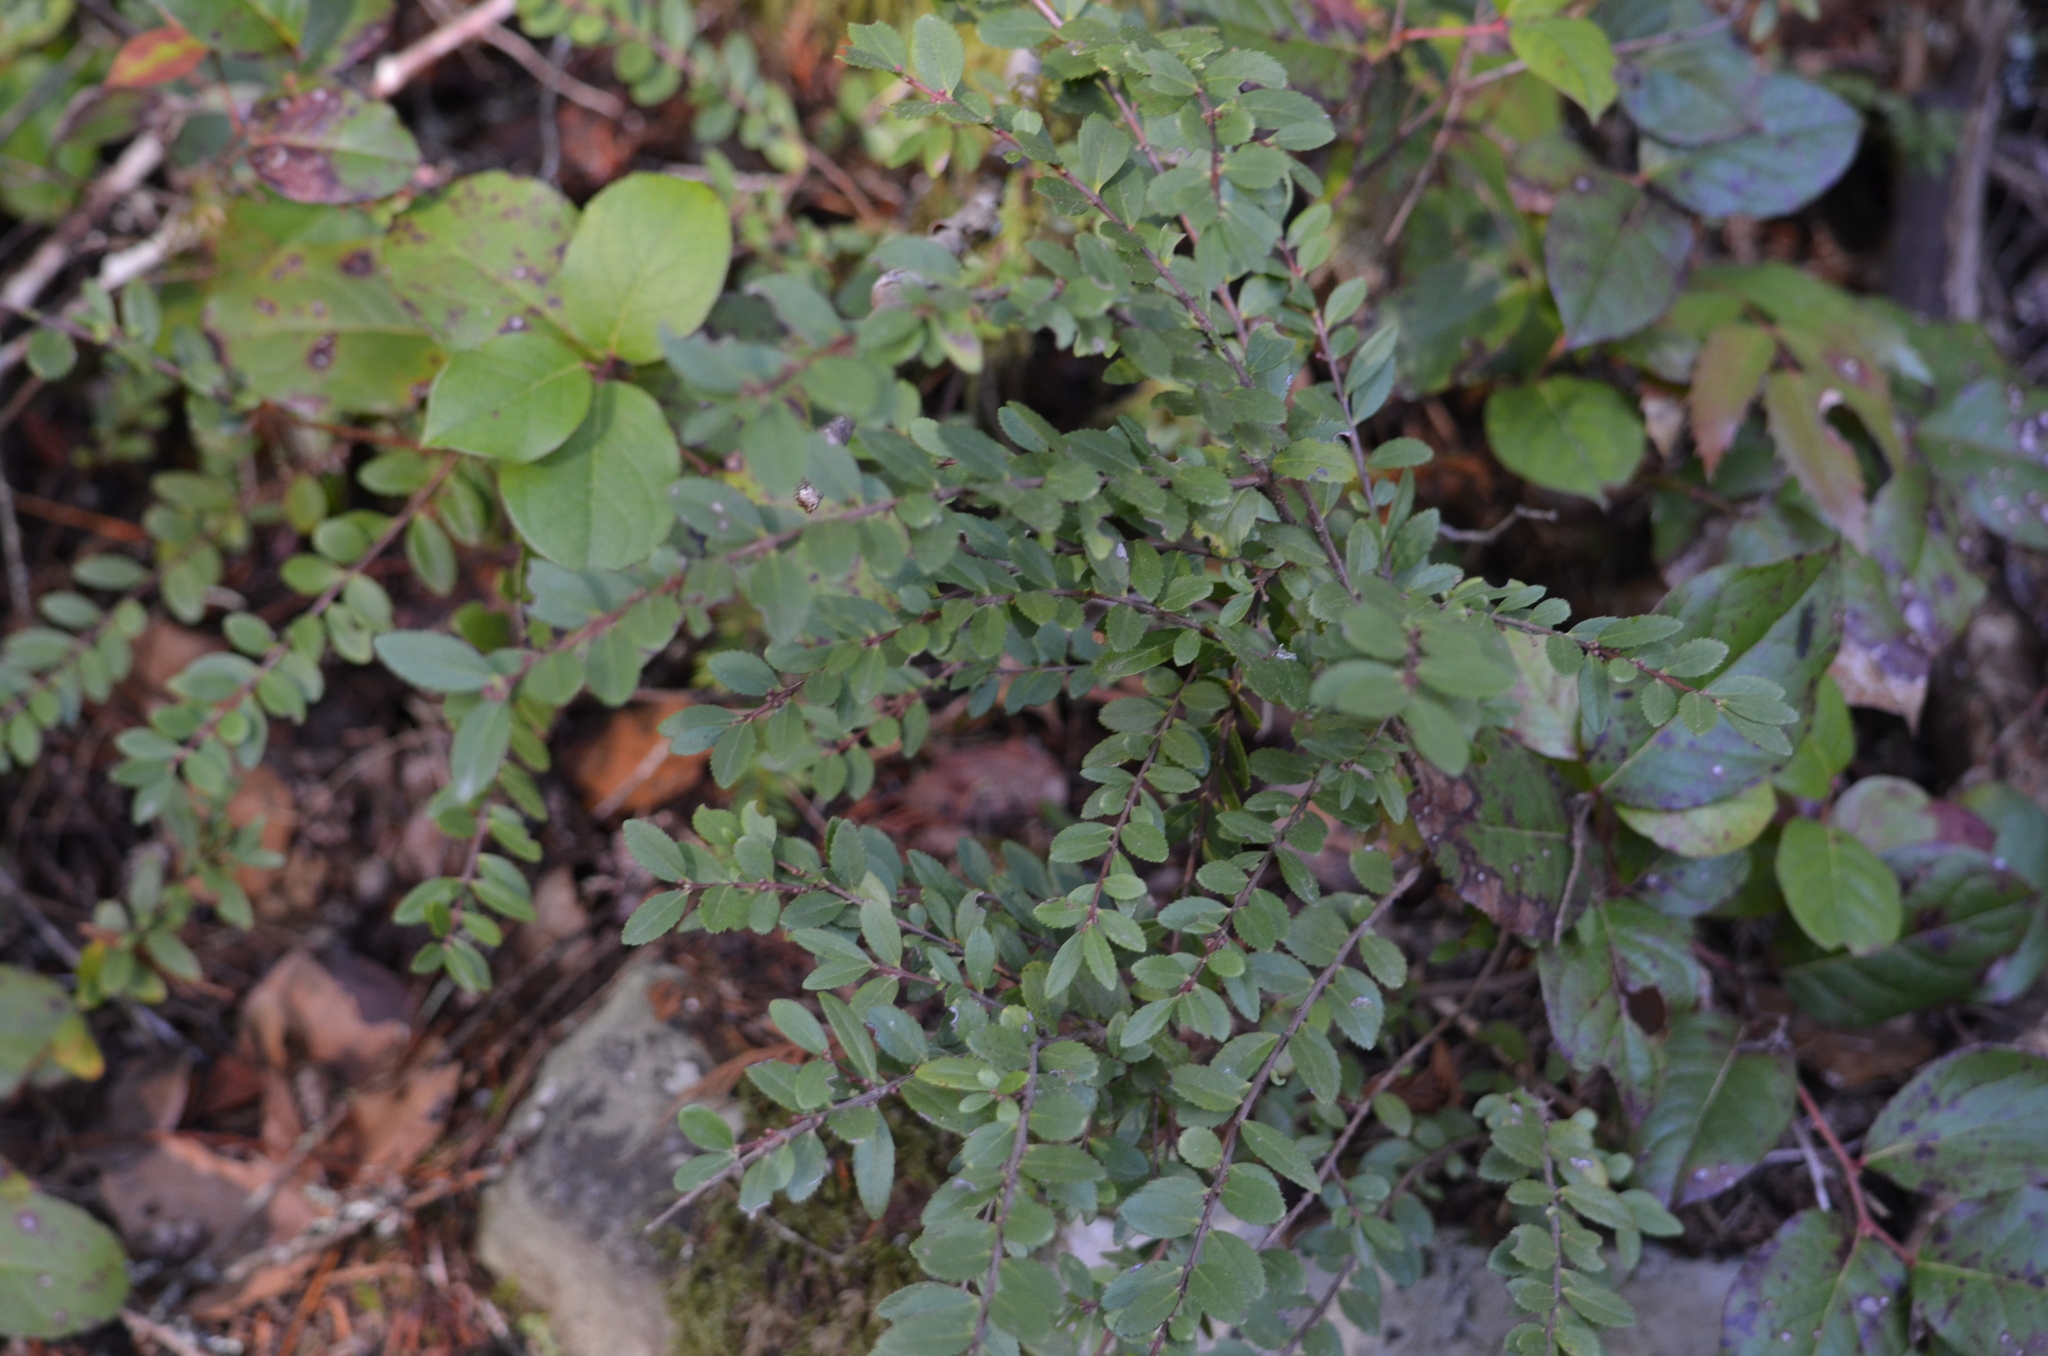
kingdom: Plantae
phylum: Tracheophyta
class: Magnoliopsida
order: Celastrales
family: Celastraceae
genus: Paxistima
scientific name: Paxistima myrsinites
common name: Mountain-lover
